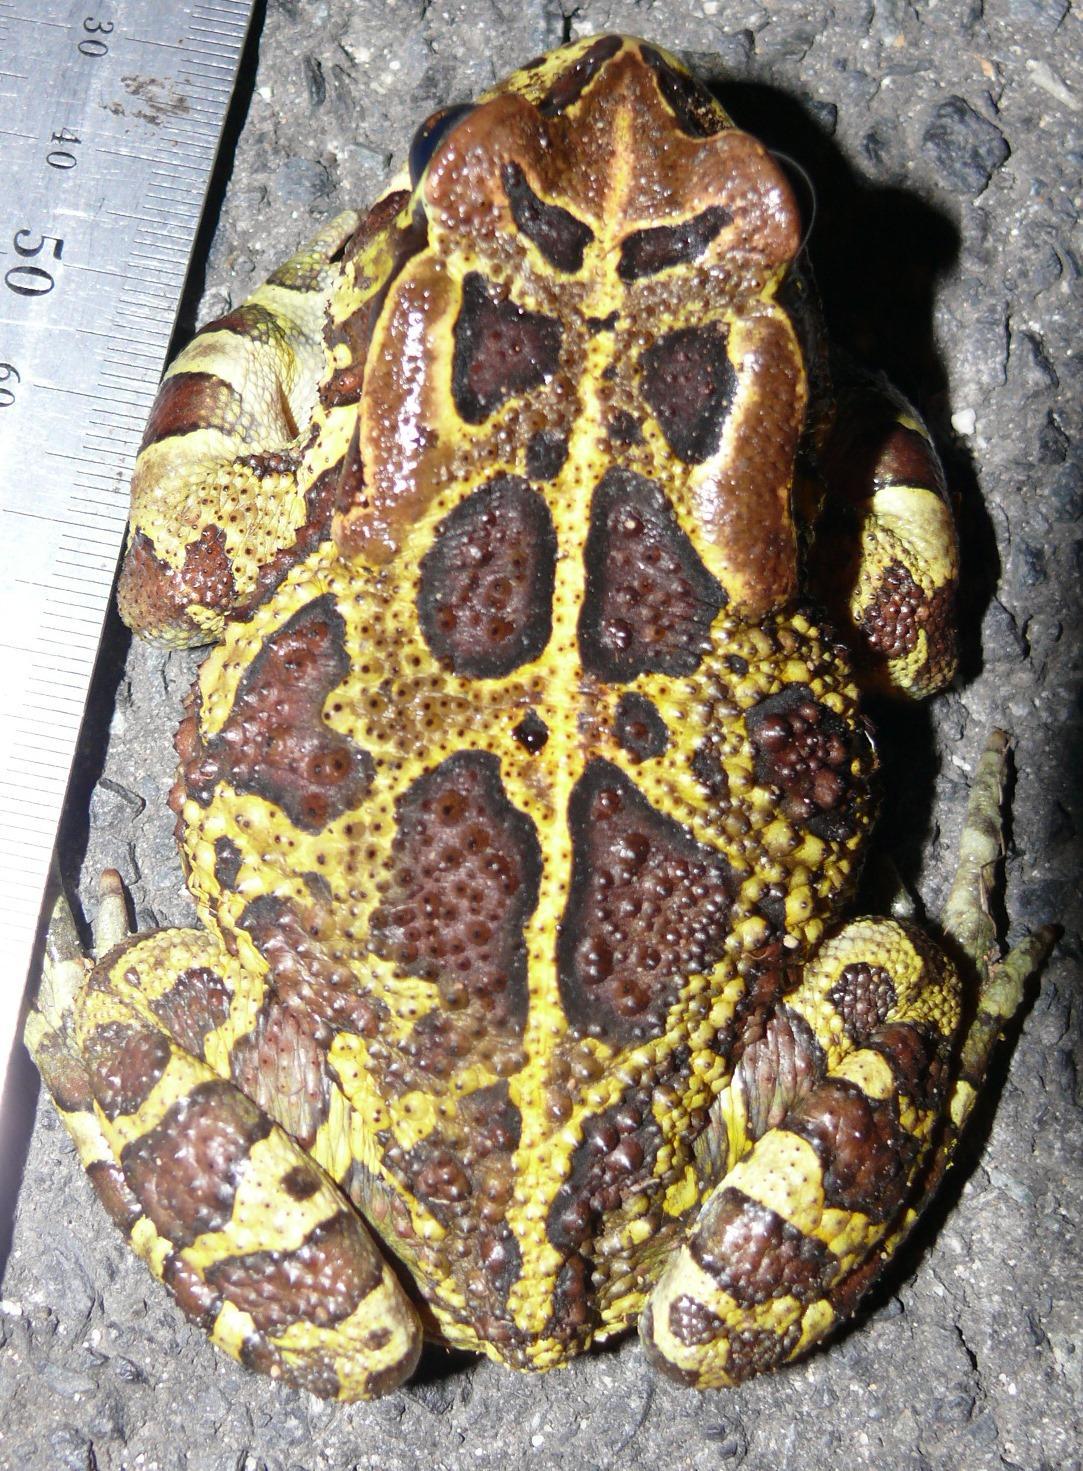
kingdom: Animalia
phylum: Chordata
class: Amphibia
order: Anura
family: Bufonidae
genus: Sclerophrys
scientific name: Sclerophrys pantherina
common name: Panther toad
